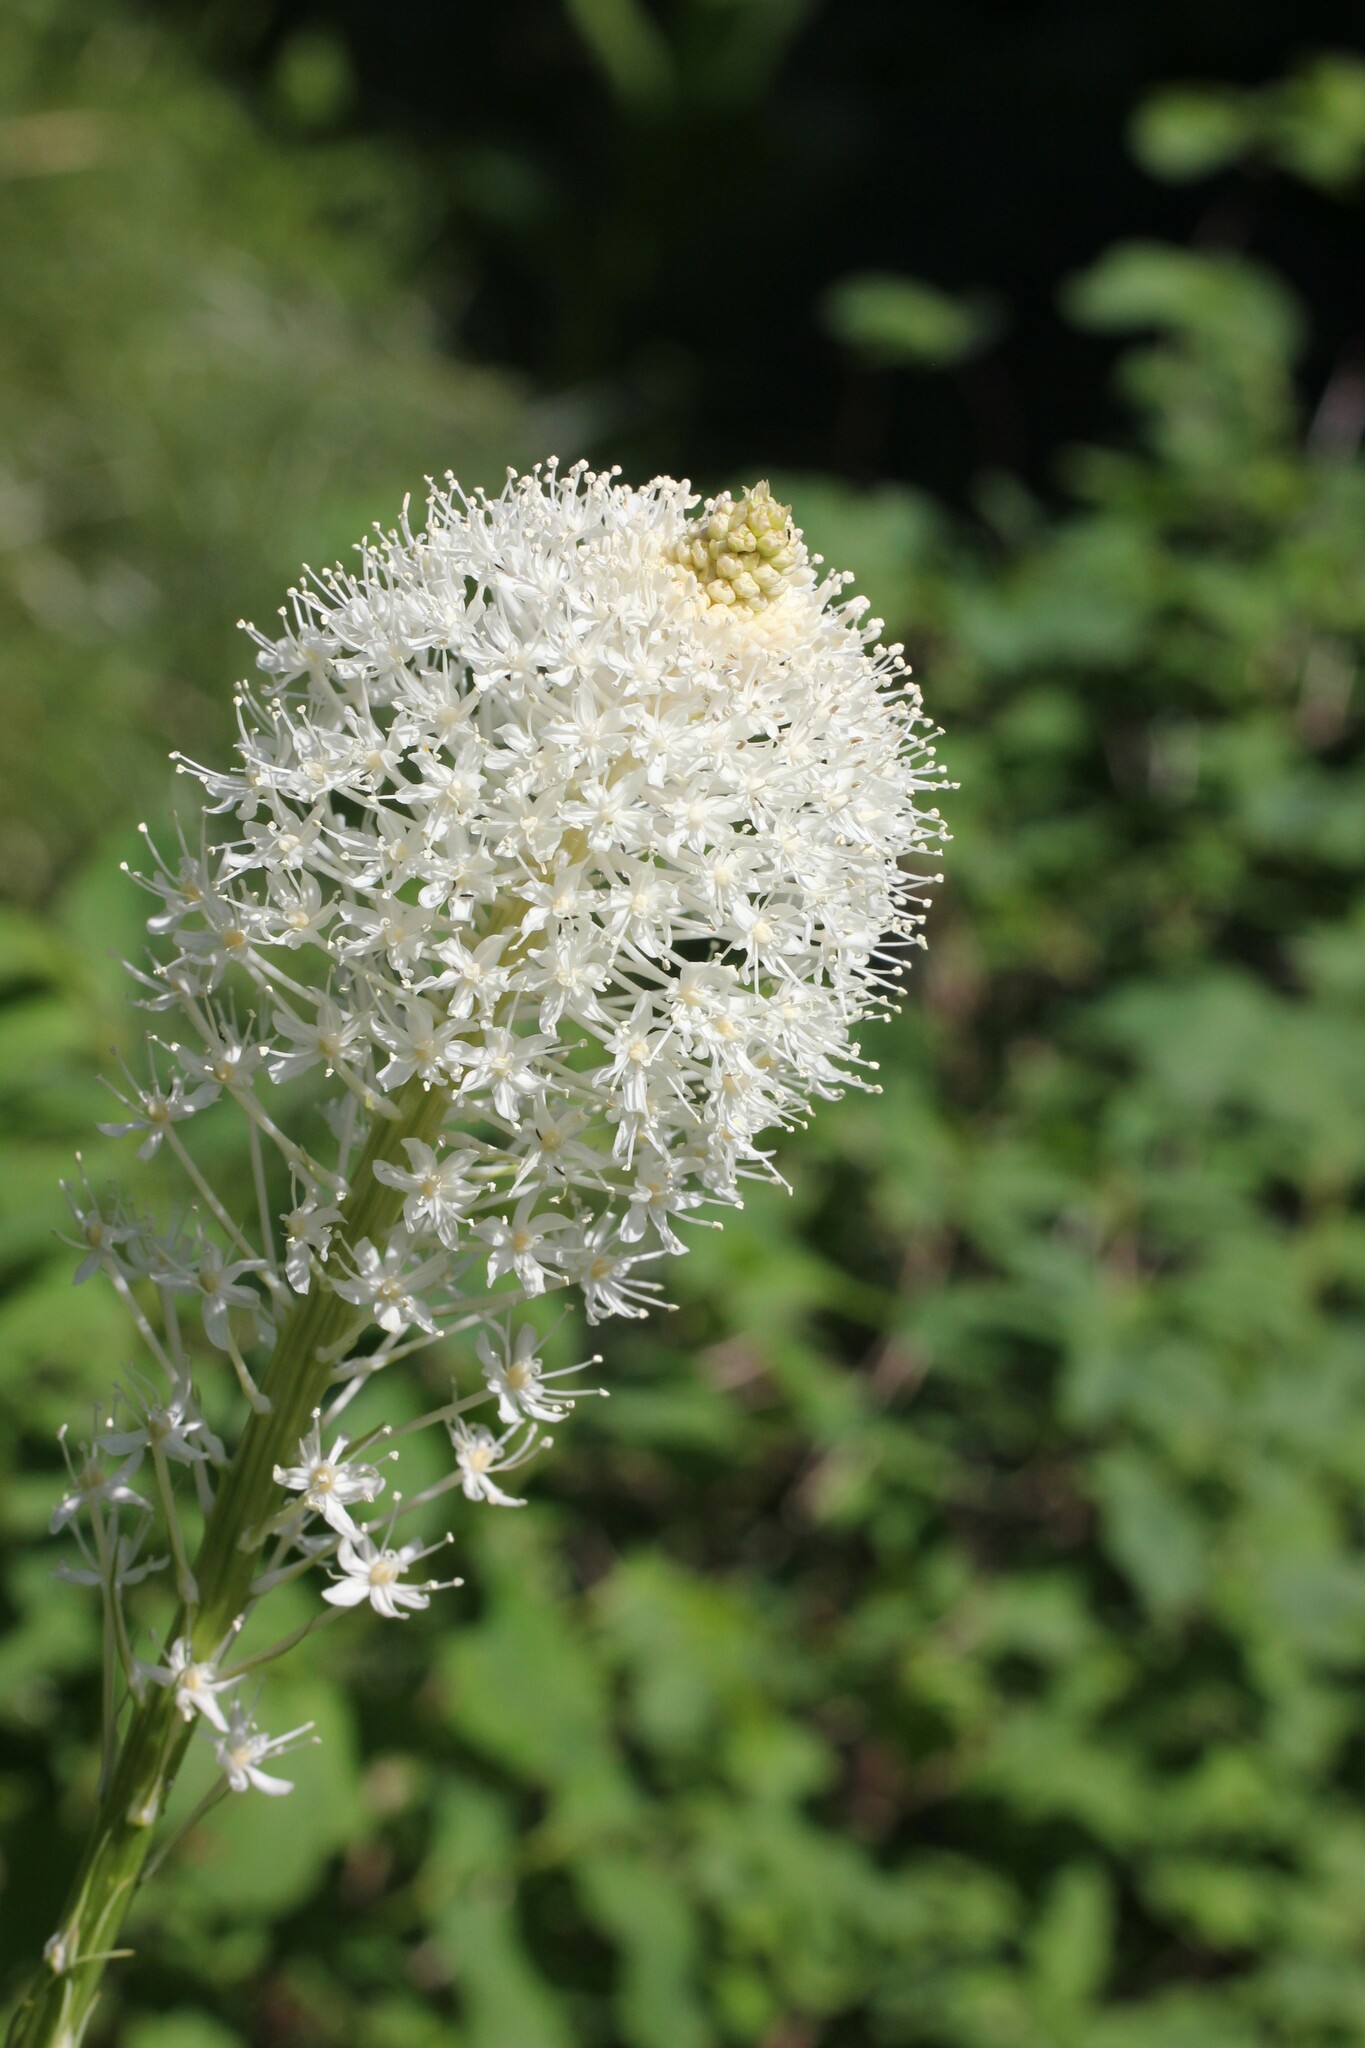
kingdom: Plantae
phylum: Tracheophyta
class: Liliopsida
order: Liliales
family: Melanthiaceae
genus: Xerophyllum
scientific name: Xerophyllum tenax
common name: Bear-grass
